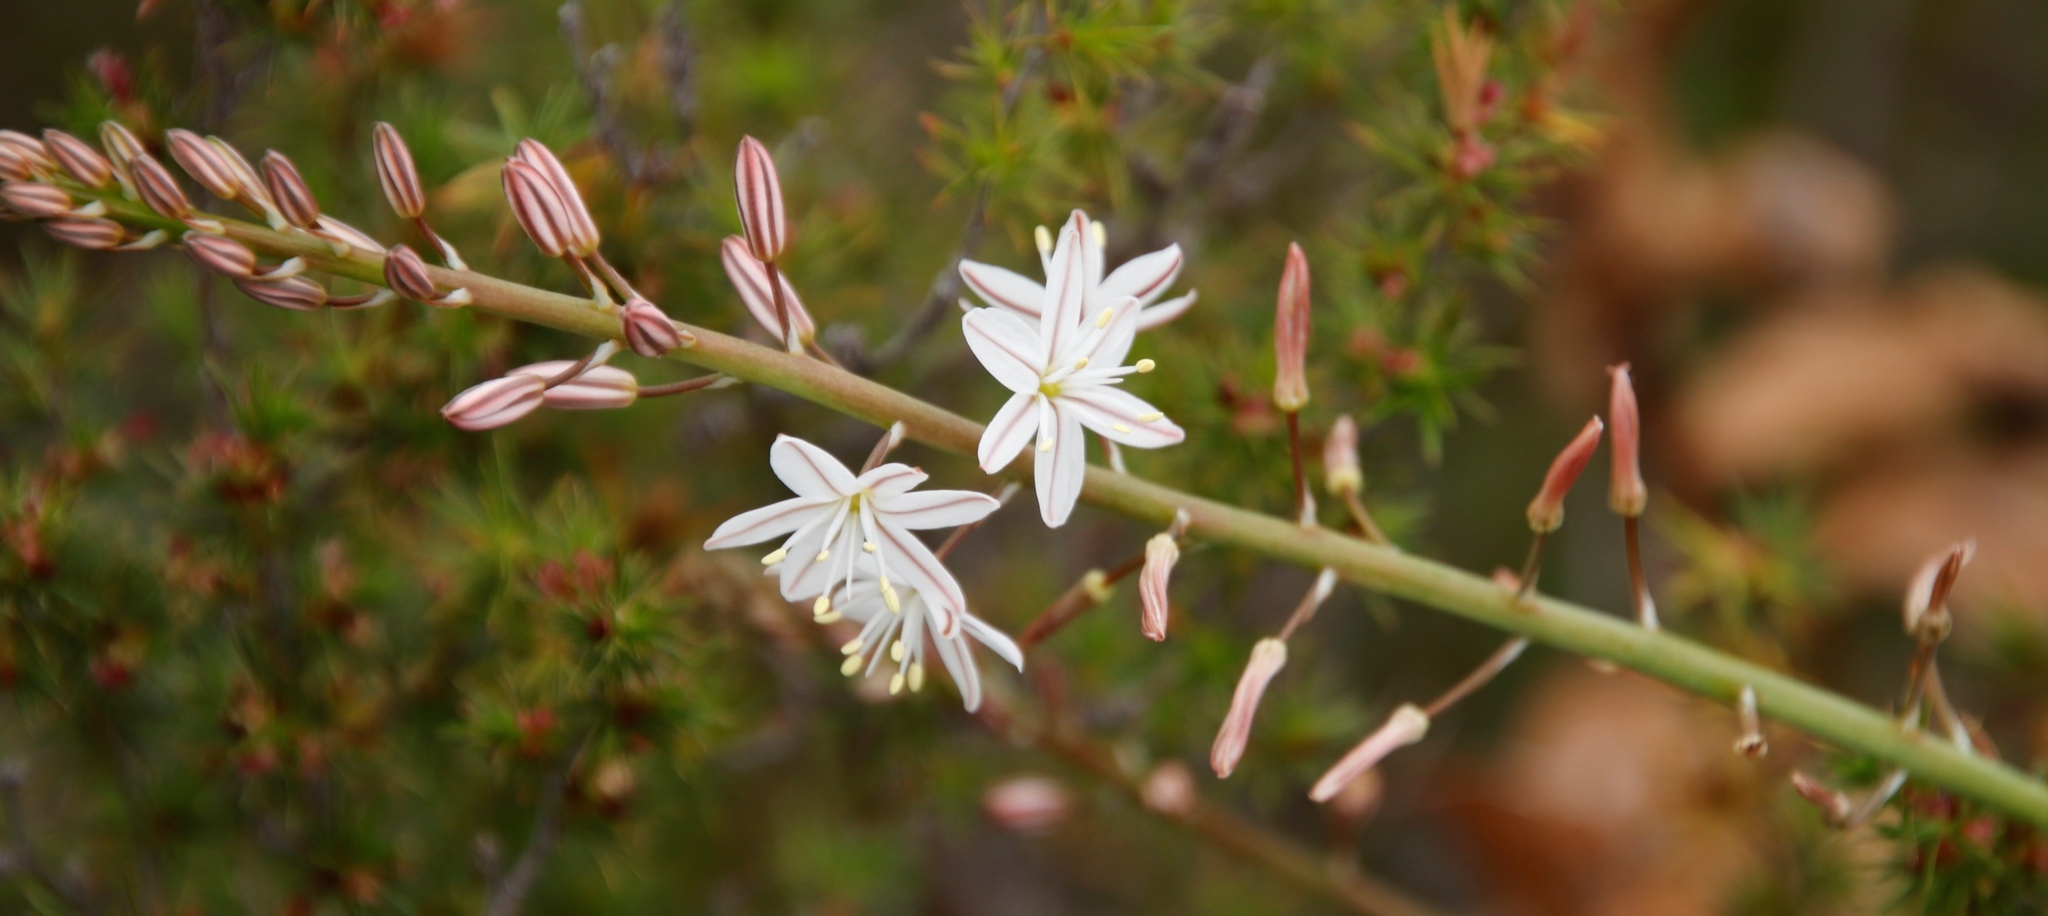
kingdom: Plantae
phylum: Tracheophyta
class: Liliopsida
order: Asparagales
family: Asphodelaceae
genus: Trachyandra
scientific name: Trachyandra hirsuta
